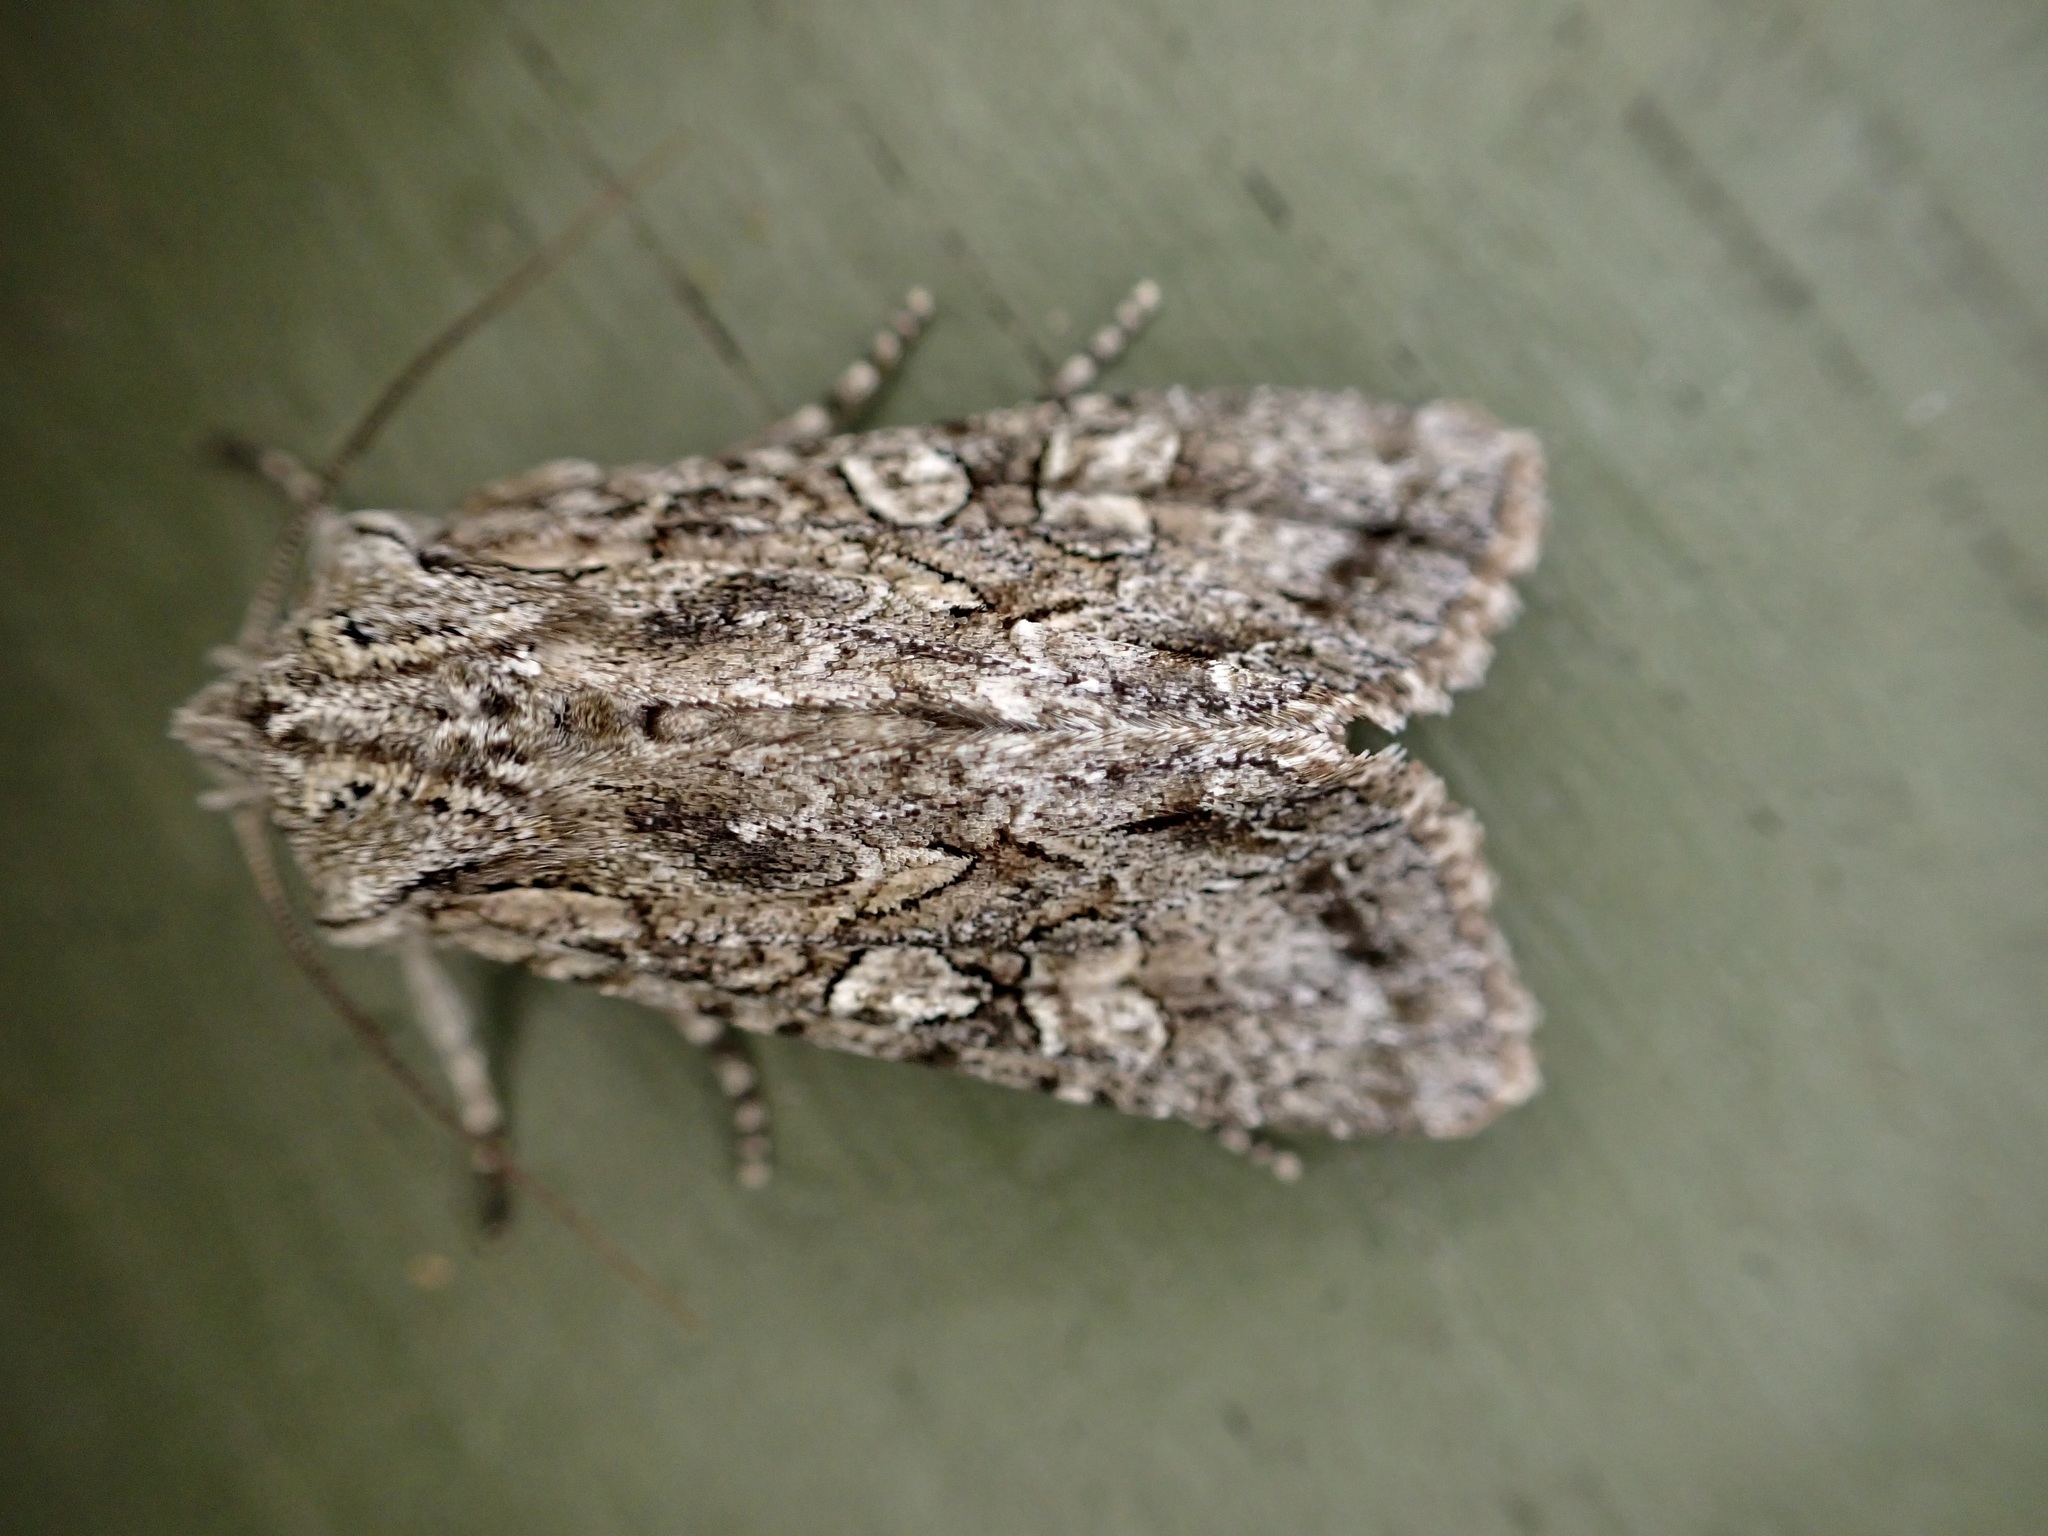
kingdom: Animalia
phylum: Arthropoda
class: Insecta
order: Lepidoptera
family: Noctuidae
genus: Ichneutica
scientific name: Ichneutica mutans
